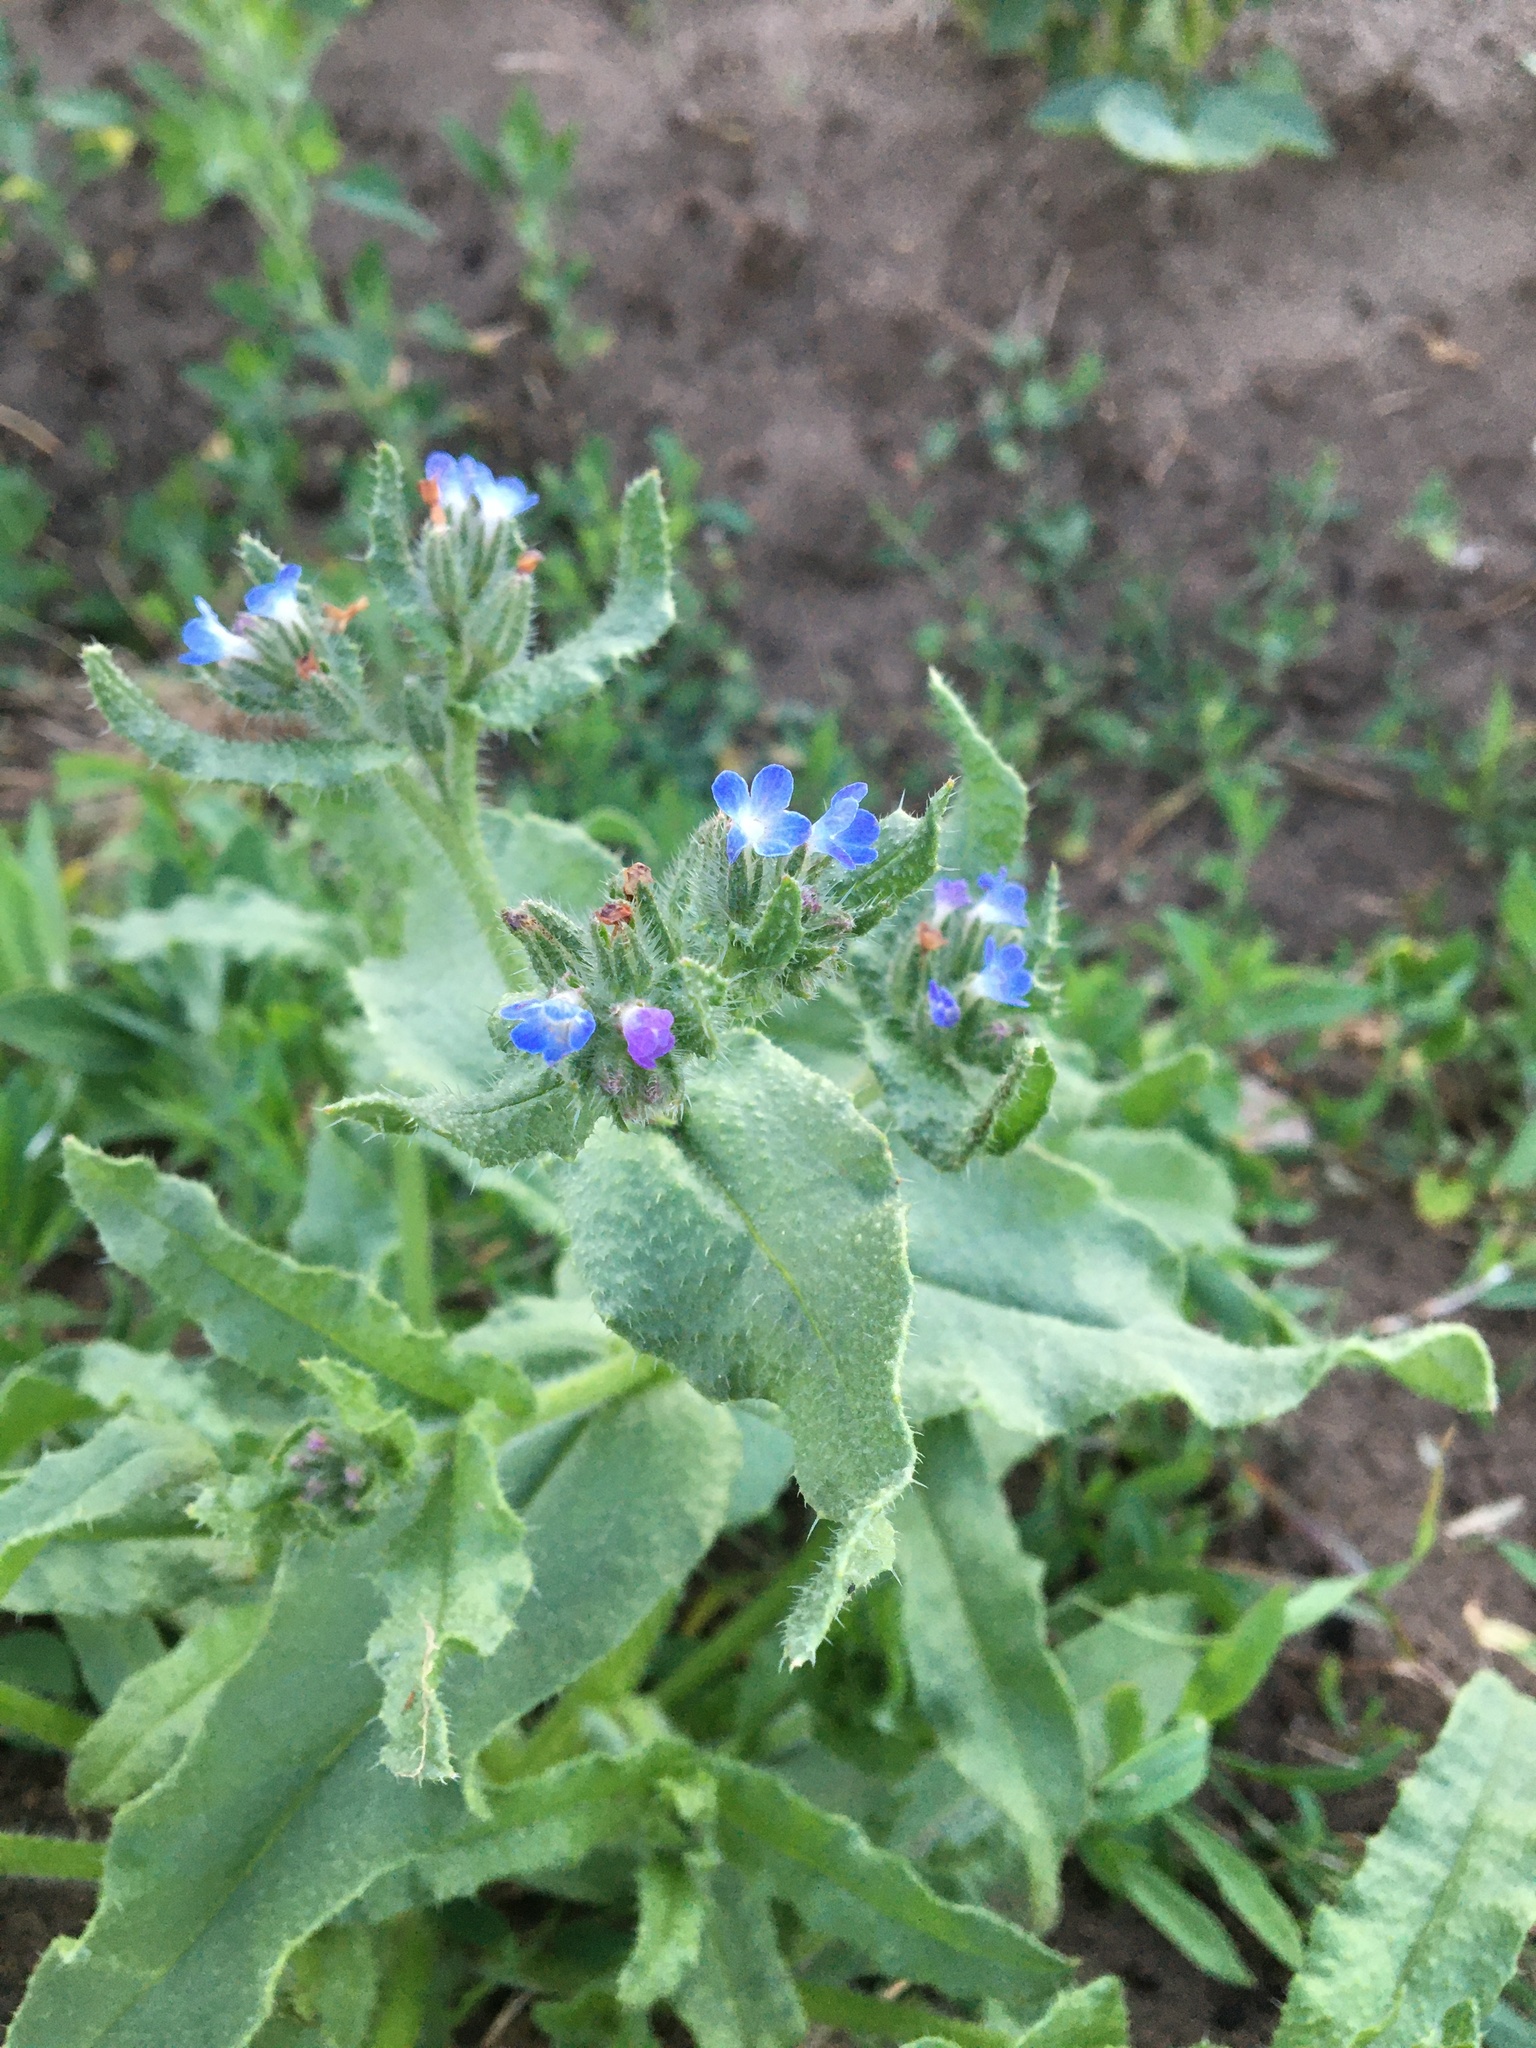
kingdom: Plantae
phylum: Tracheophyta
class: Magnoliopsida
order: Boraginales
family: Boraginaceae
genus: Lycopsis
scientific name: Lycopsis arvensis
